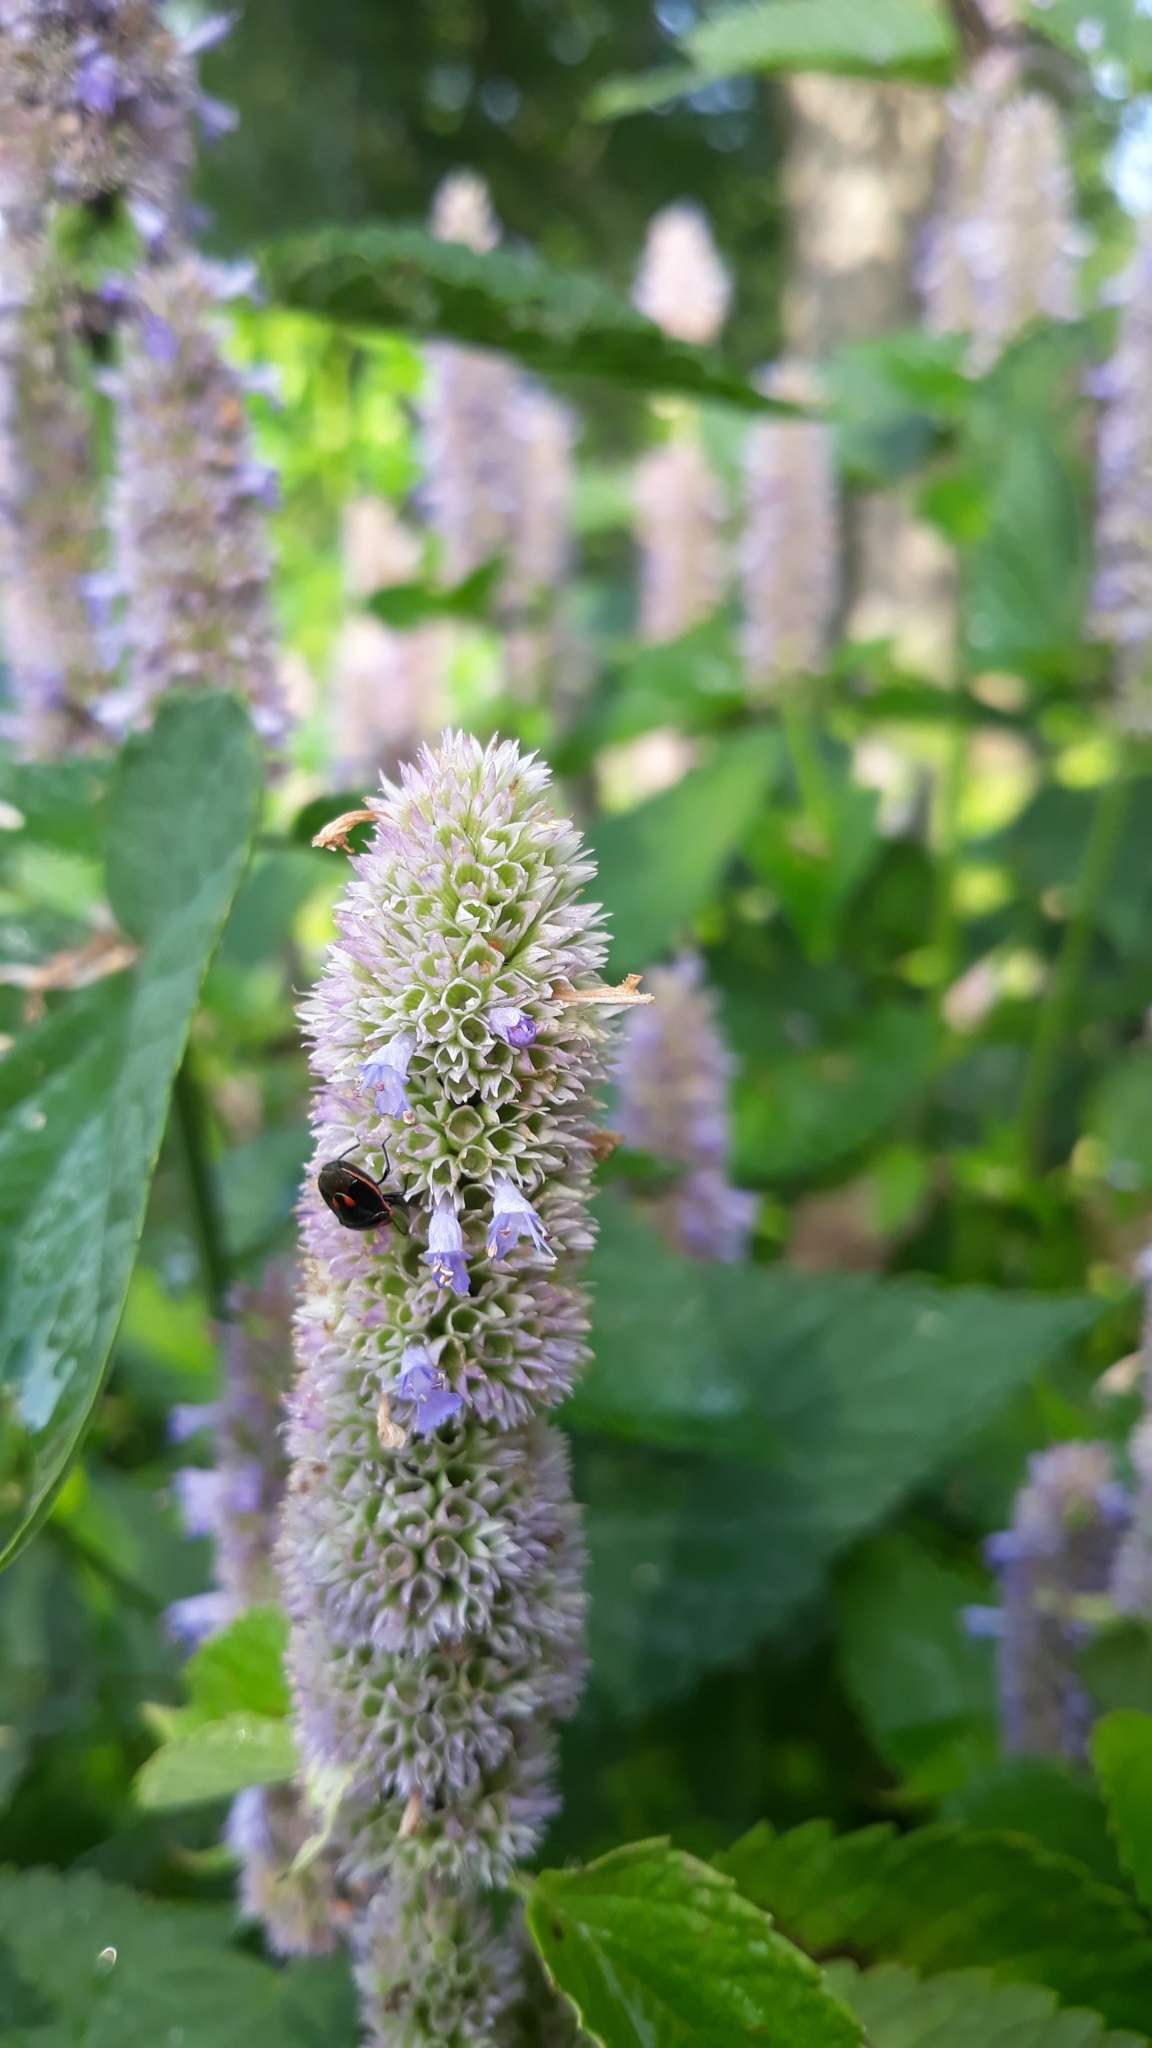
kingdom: Animalia
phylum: Arthropoda
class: Insecta
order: Hemiptera
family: Pentatomidae
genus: Cosmopepla
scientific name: Cosmopepla lintneriana
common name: Twice-stabbed stink bug
